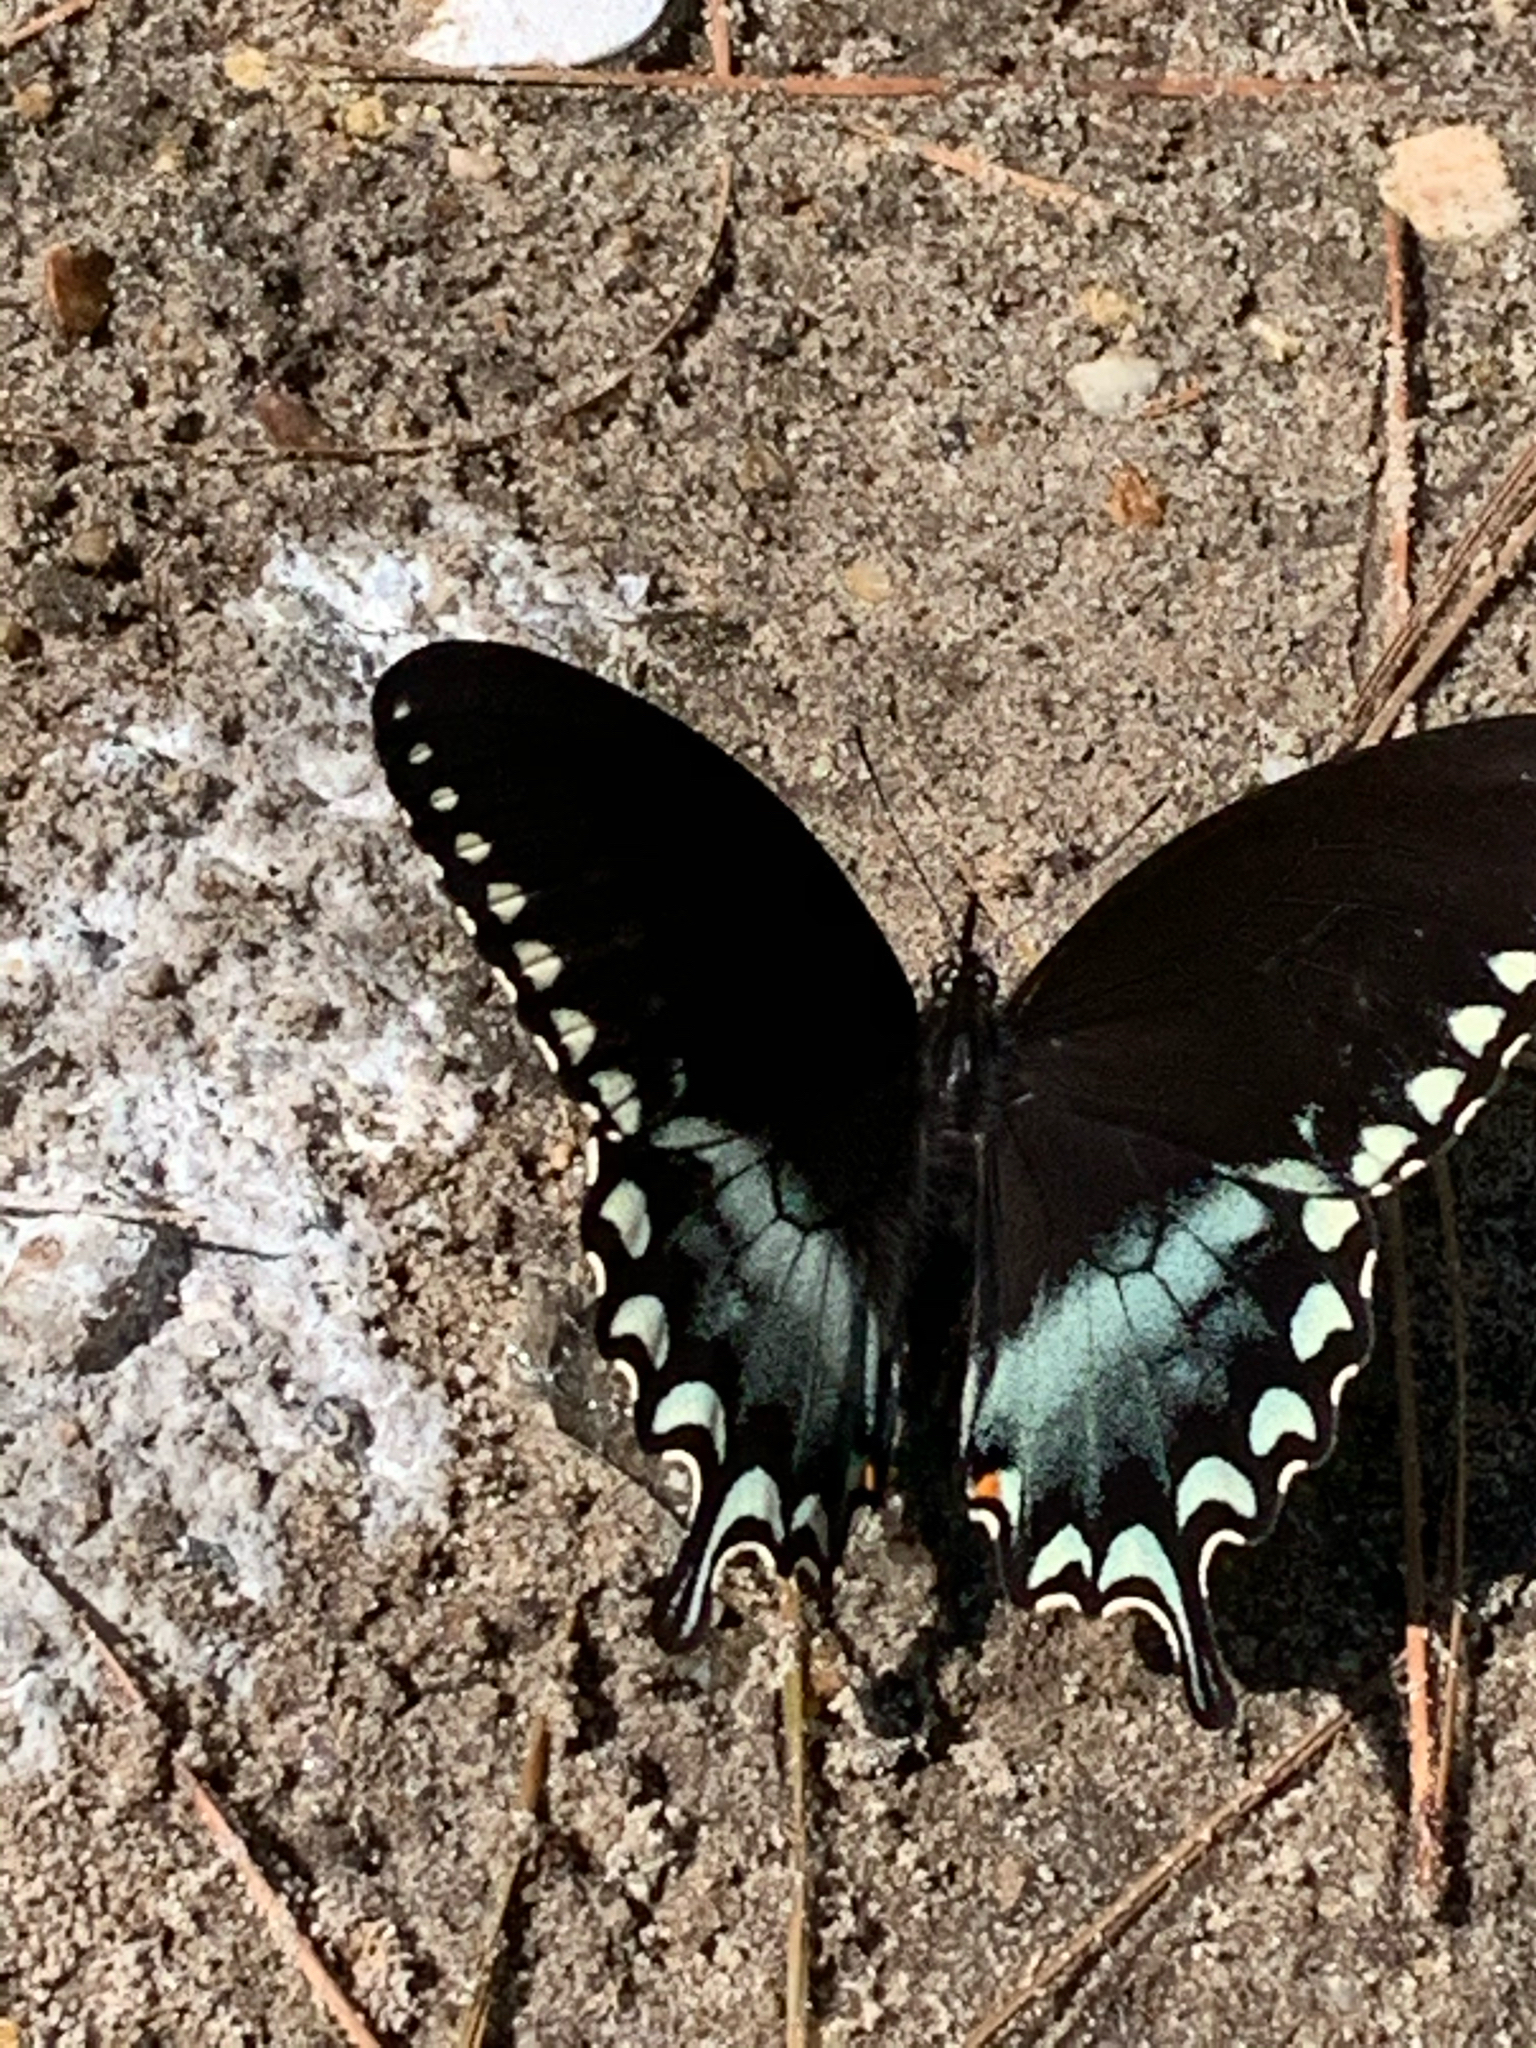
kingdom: Animalia
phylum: Arthropoda
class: Insecta
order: Lepidoptera
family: Papilionidae
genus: Papilio
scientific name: Papilio troilus
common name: Spicebush swallowtail
